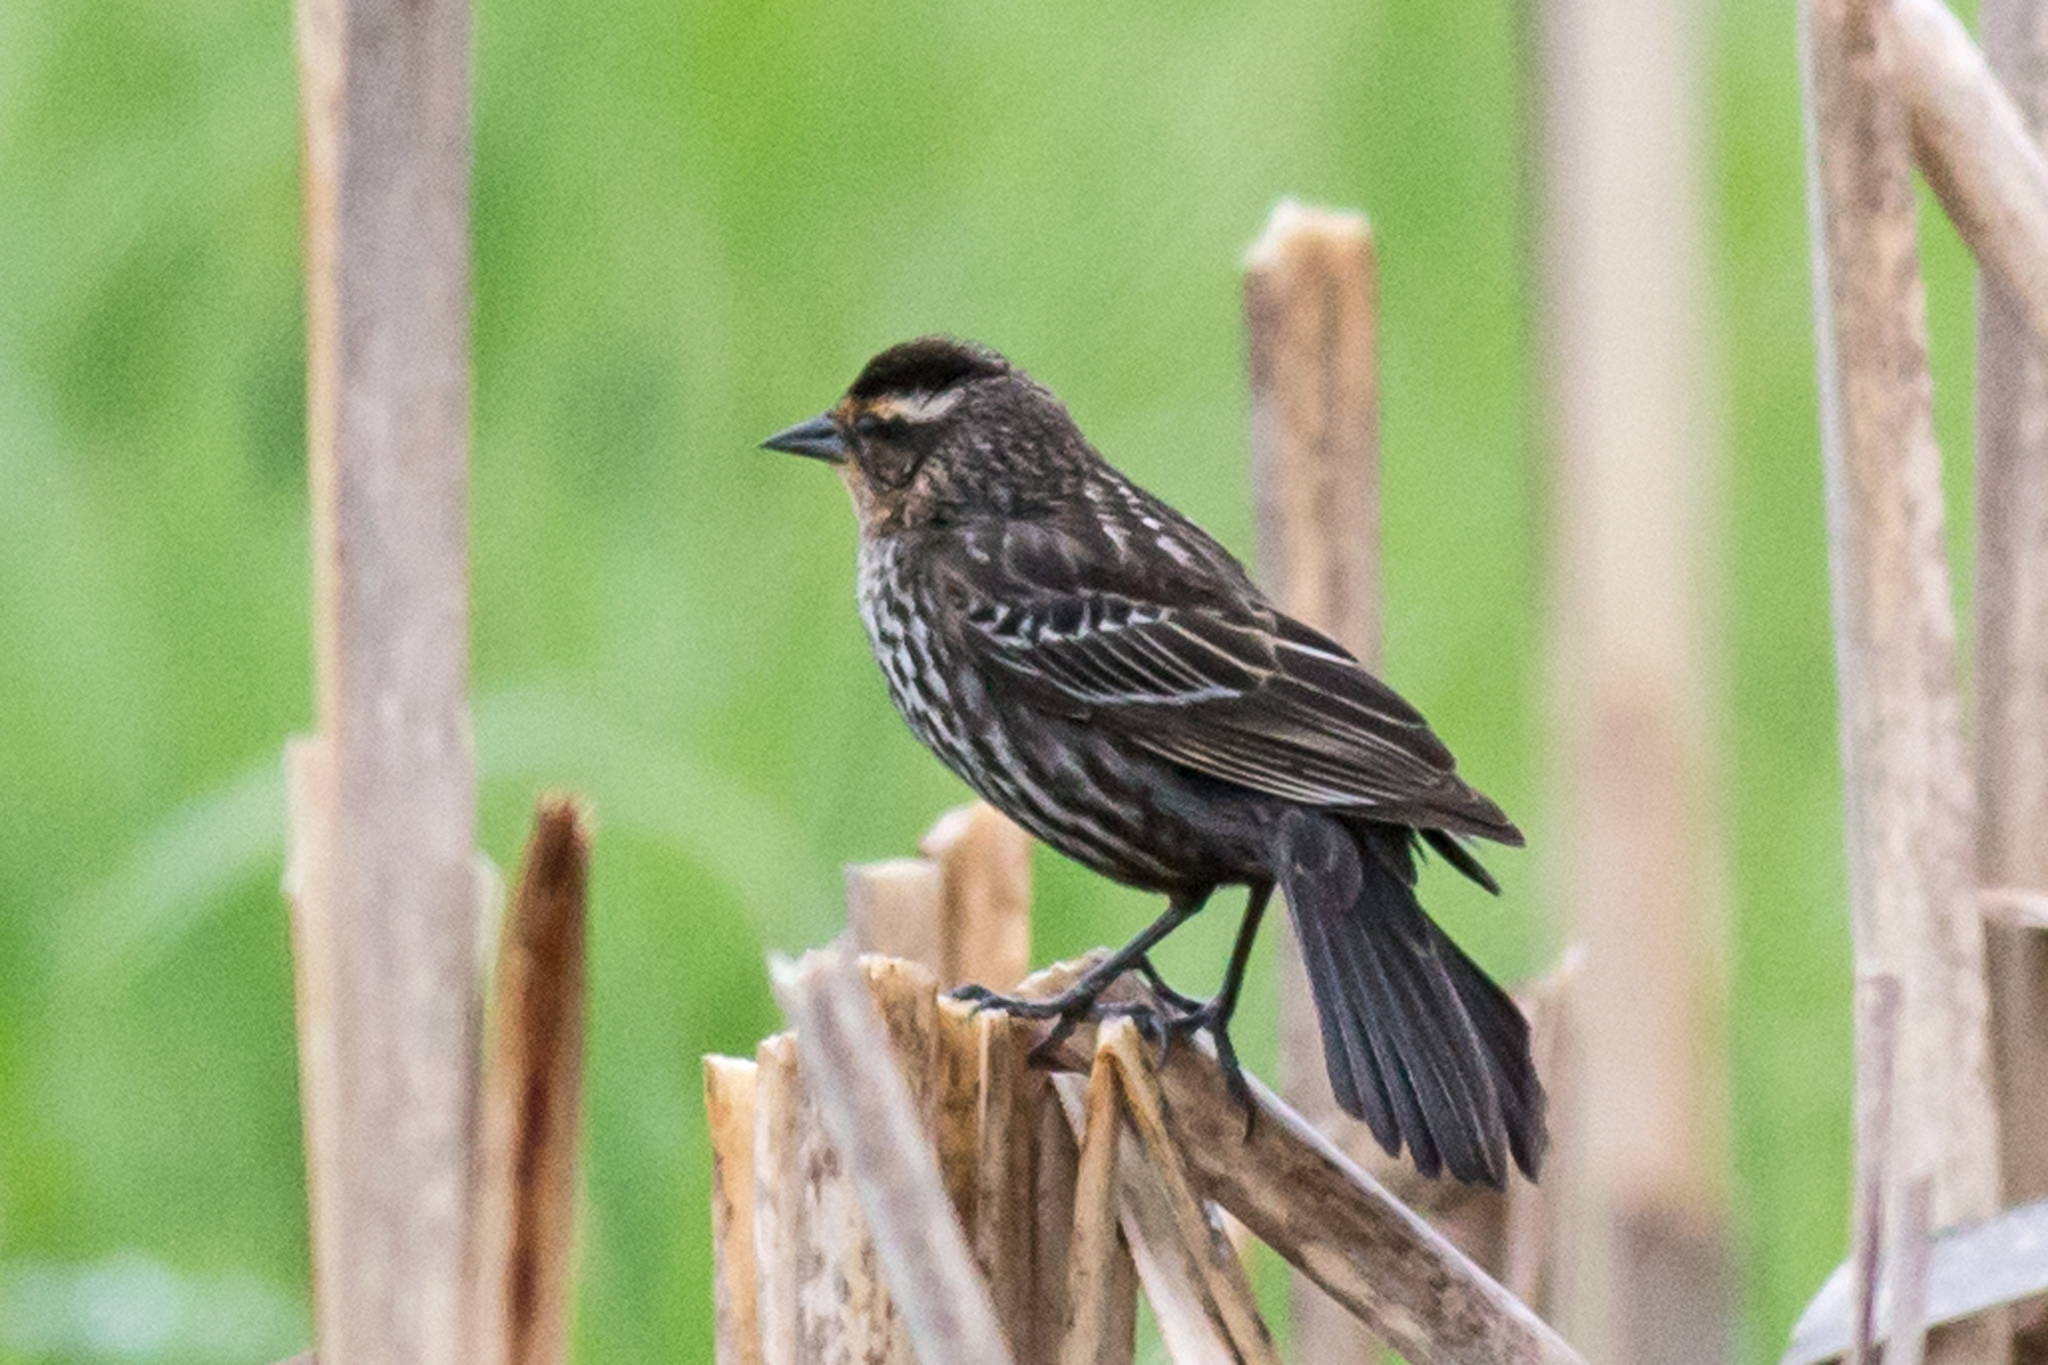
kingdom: Animalia
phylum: Chordata
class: Aves
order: Passeriformes
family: Icteridae
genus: Agelaius
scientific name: Agelaius phoeniceus
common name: Red-winged blackbird
